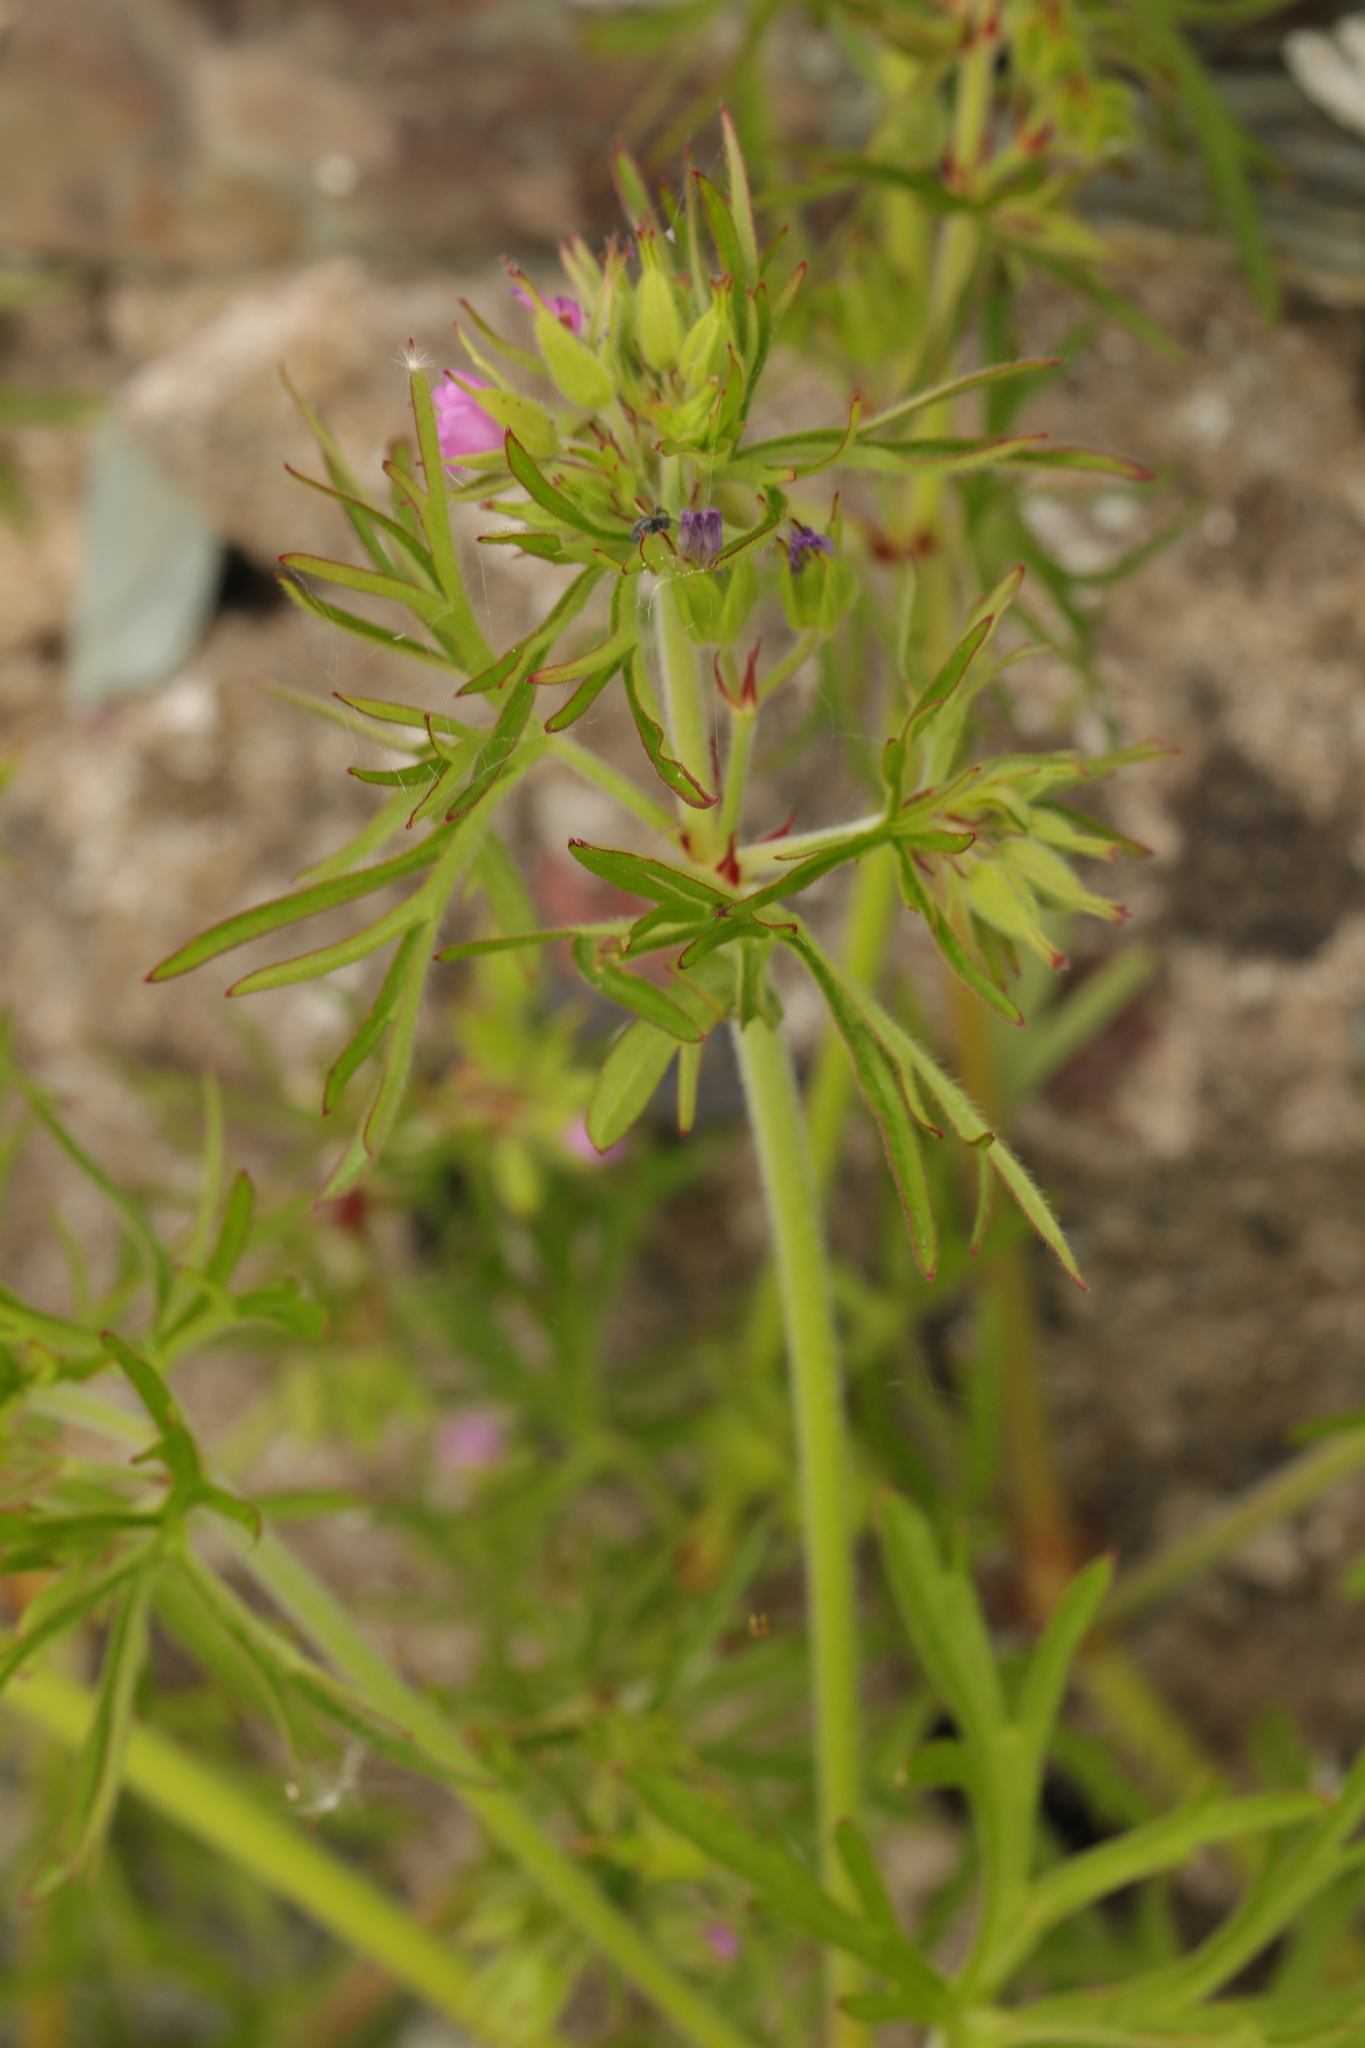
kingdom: Plantae
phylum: Tracheophyta
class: Magnoliopsida
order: Geraniales
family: Geraniaceae
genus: Geranium
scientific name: Geranium dissectum
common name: Cut-leaved crane's-bill
